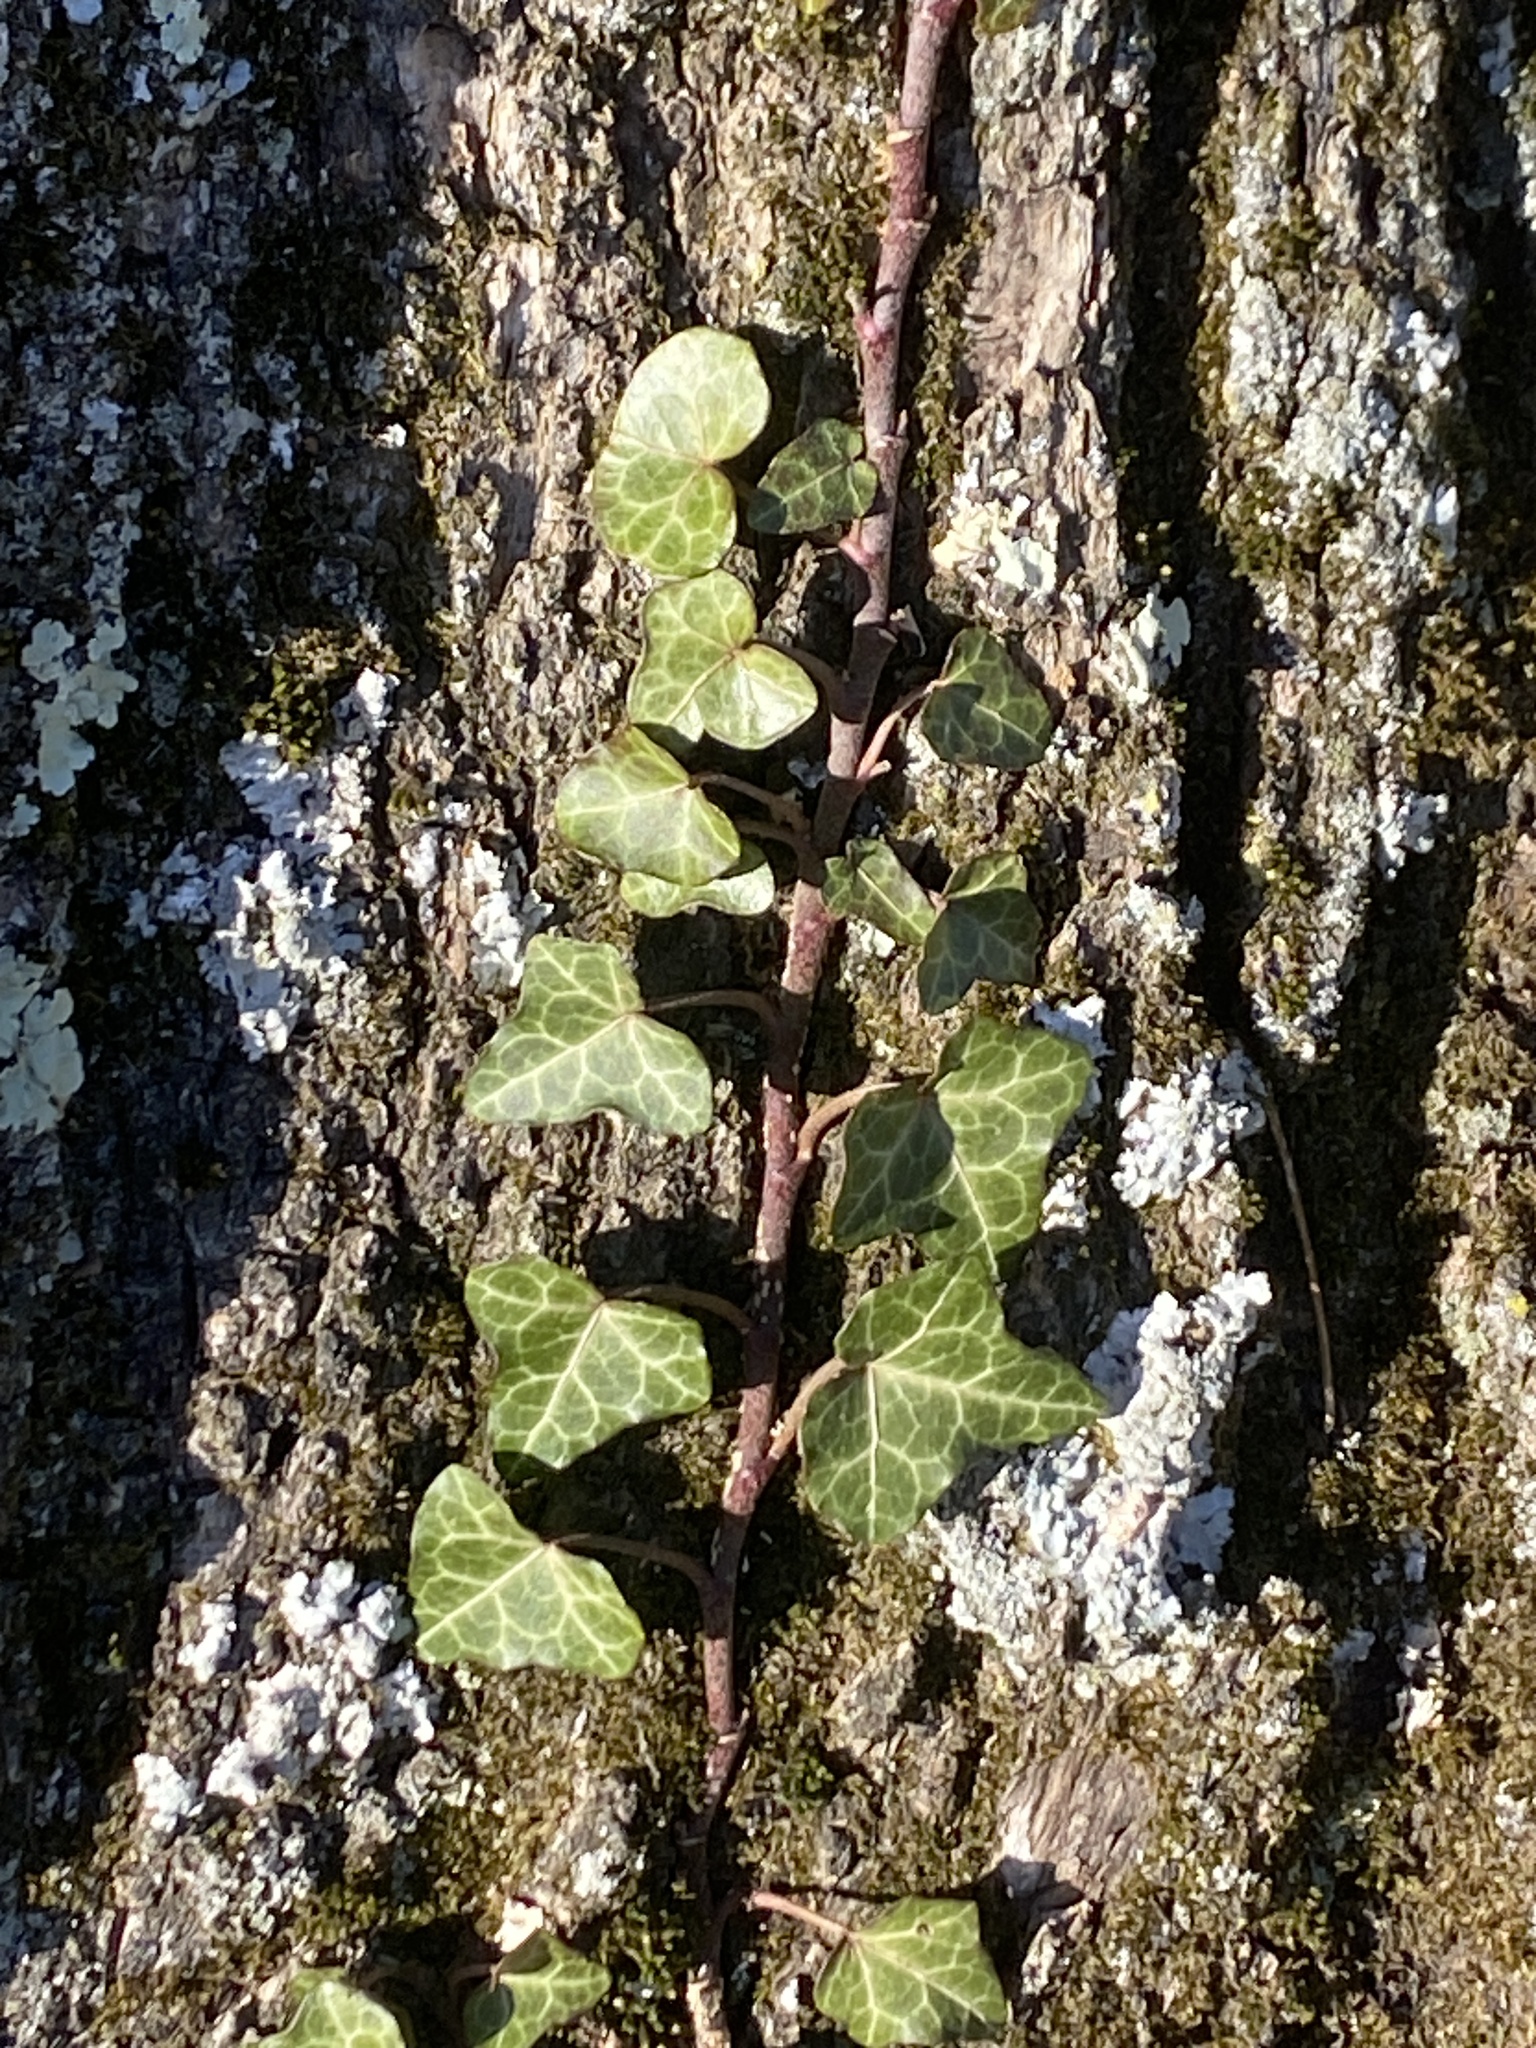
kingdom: Plantae
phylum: Tracheophyta
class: Magnoliopsida
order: Apiales
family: Araliaceae
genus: Hedera
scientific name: Hedera
